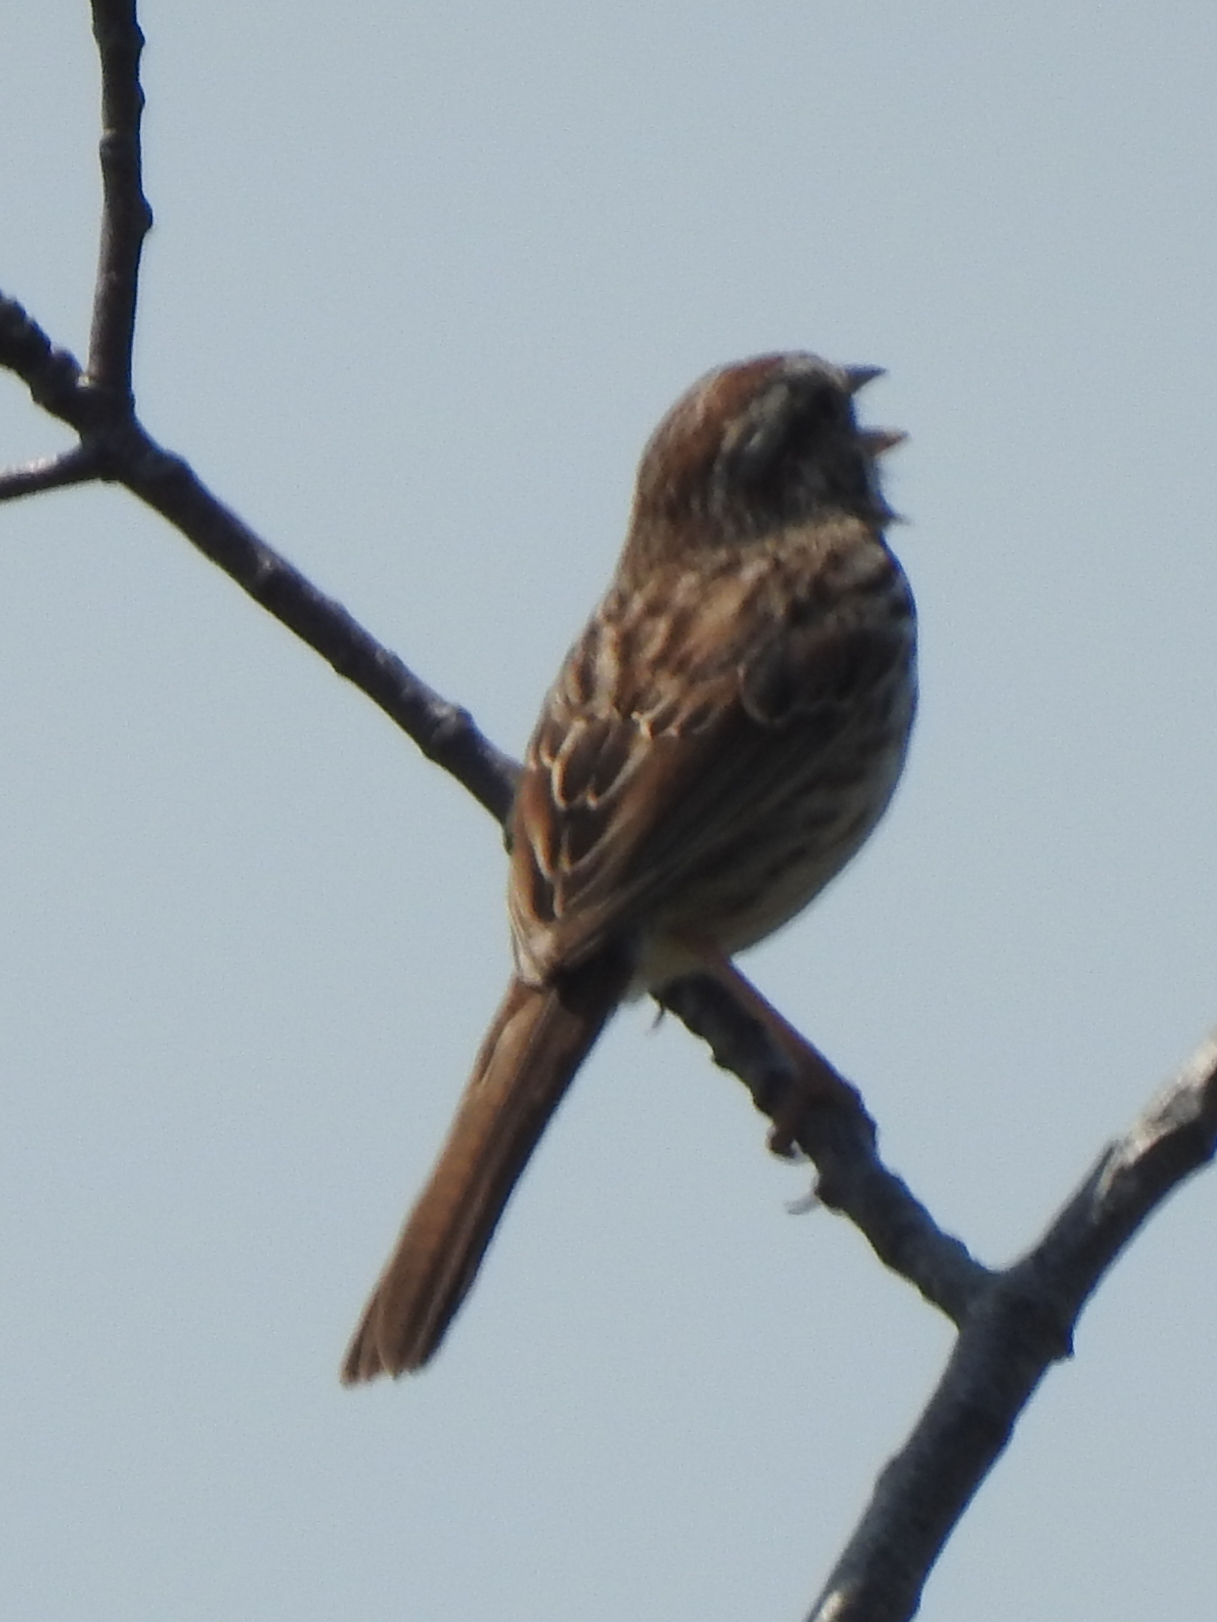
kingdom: Animalia
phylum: Chordata
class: Aves
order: Passeriformes
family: Passerellidae
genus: Melospiza
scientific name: Melospiza melodia
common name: Song sparrow
